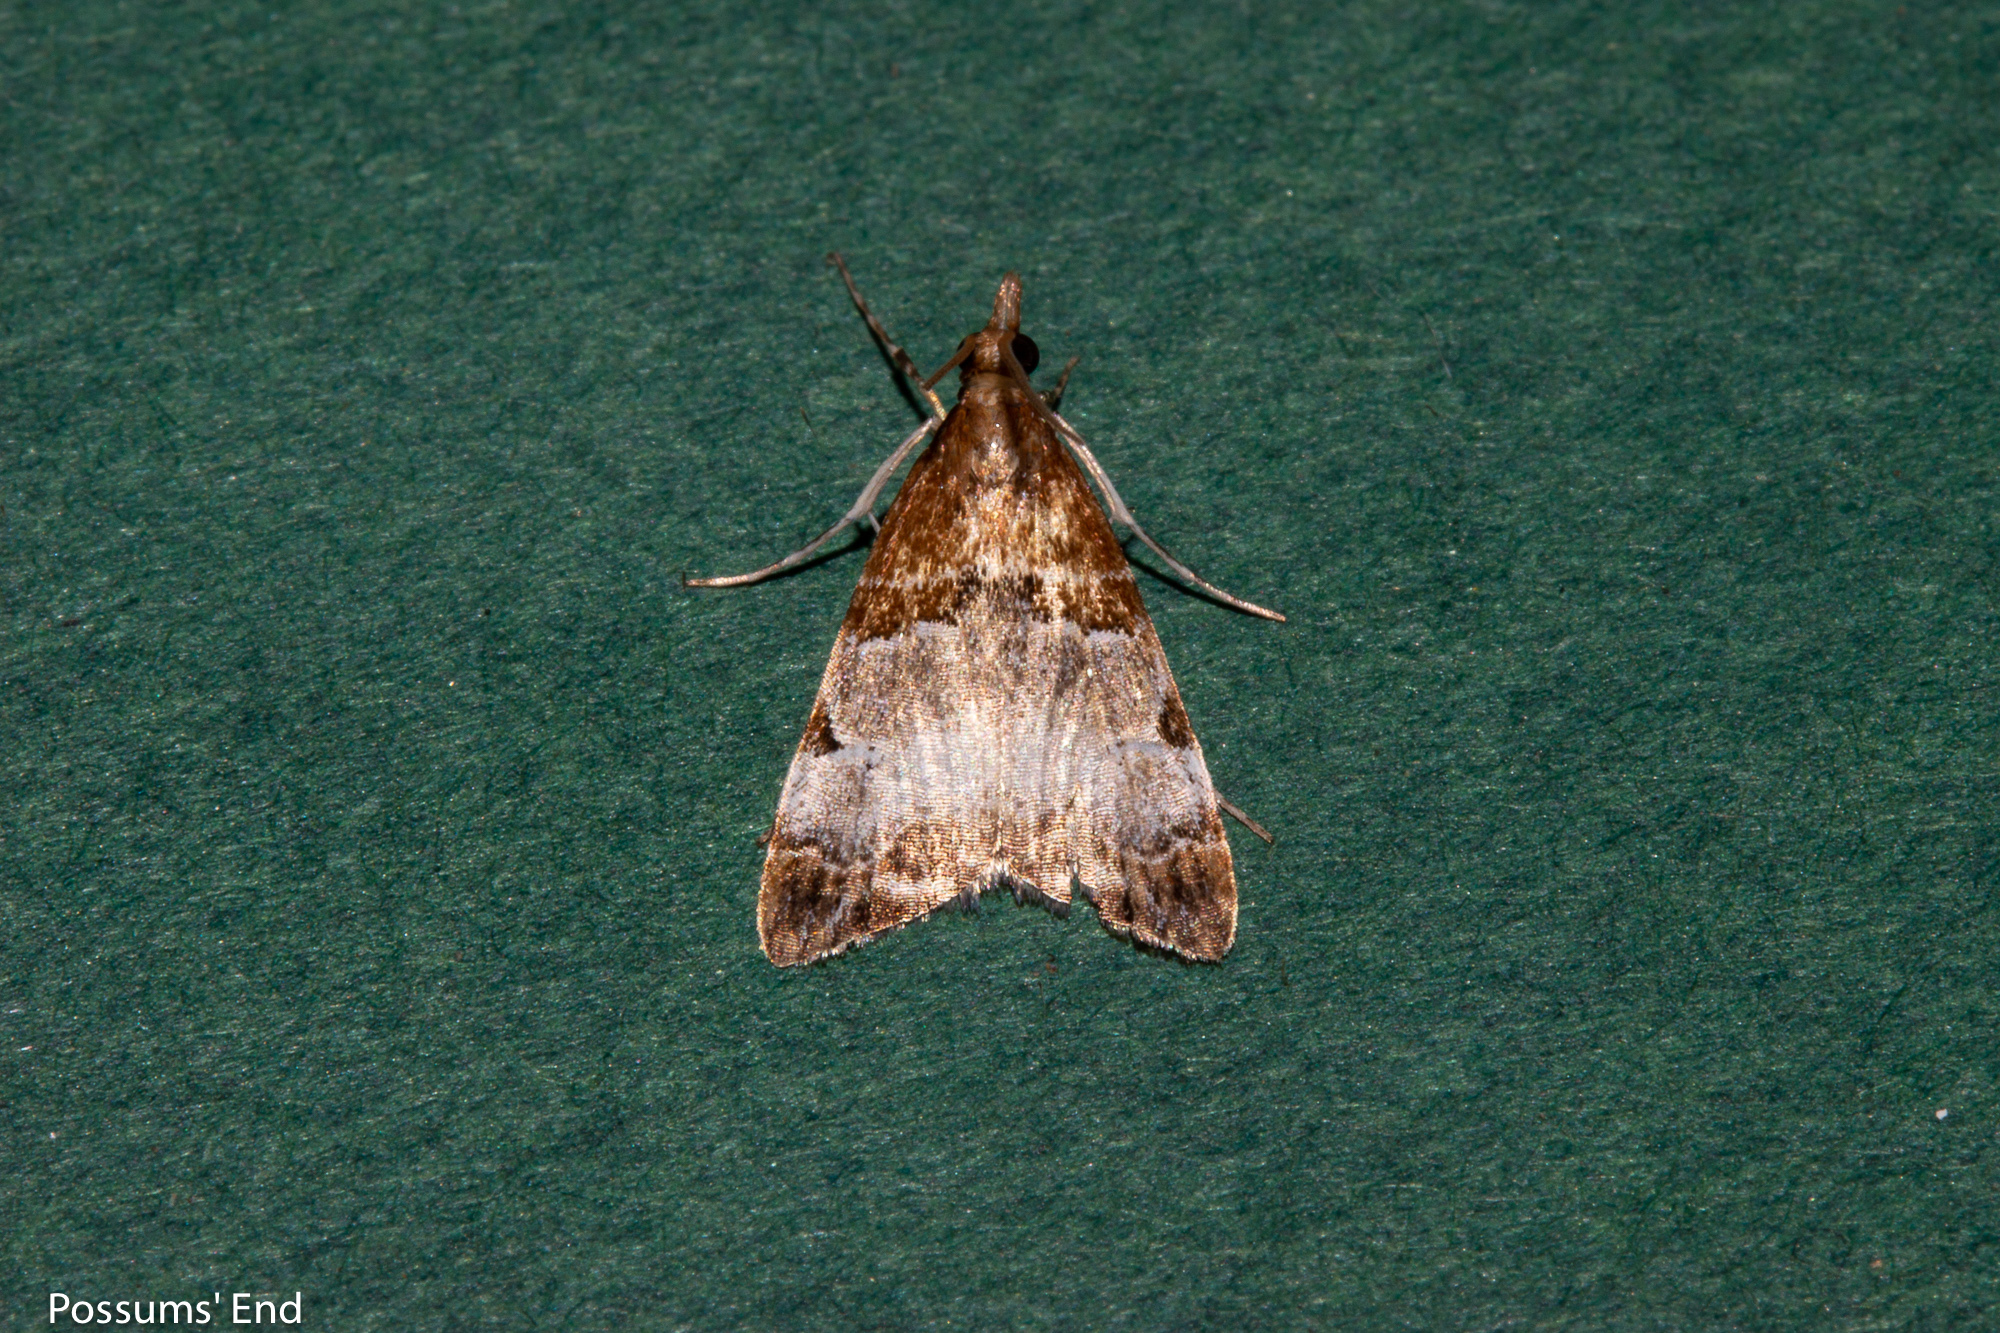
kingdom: Animalia
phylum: Arthropoda
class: Insecta
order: Lepidoptera
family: Crambidae
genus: Antiscopa
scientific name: Antiscopa epicomia
